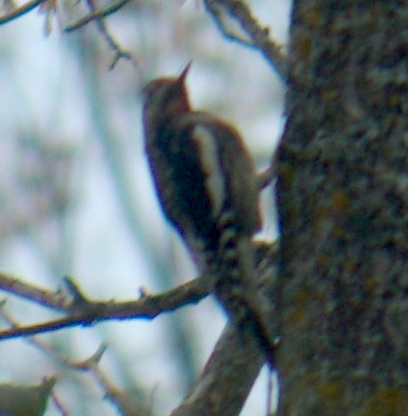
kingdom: Animalia
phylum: Chordata
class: Aves
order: Piciformes
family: Picidae
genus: Sphyrapicus
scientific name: Sphyrapicus varius
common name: Yellow-bellied sapsucker
